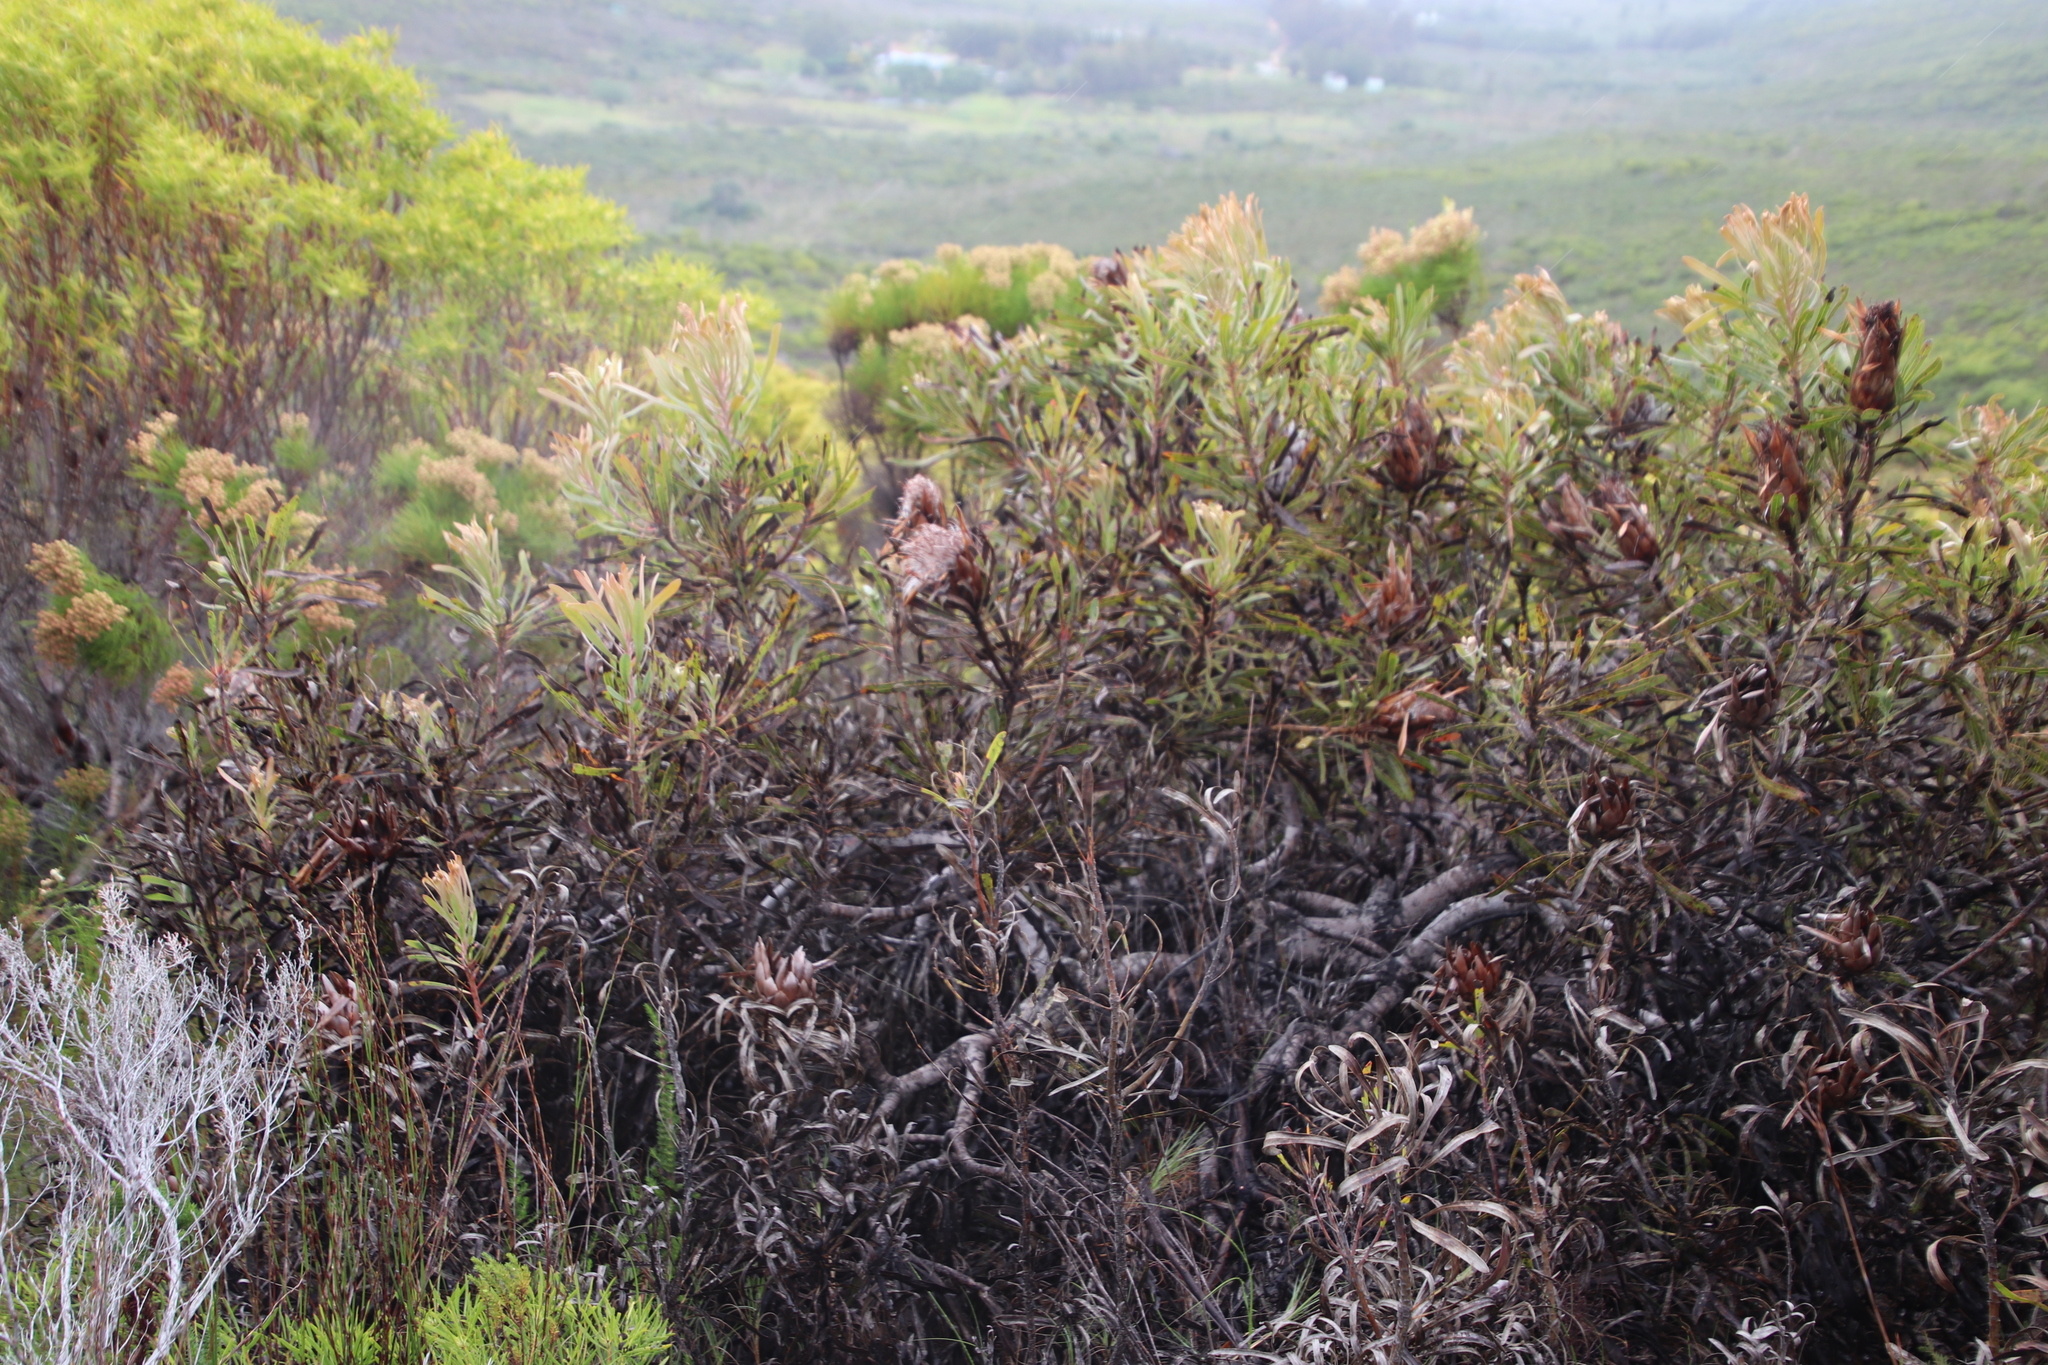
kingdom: Plantae
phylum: Tracheophyta
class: Magnoliopsida
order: Proteales
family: Proteaceae
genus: Protea
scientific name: Protea longifolia
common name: Long-leaf sugarbush
